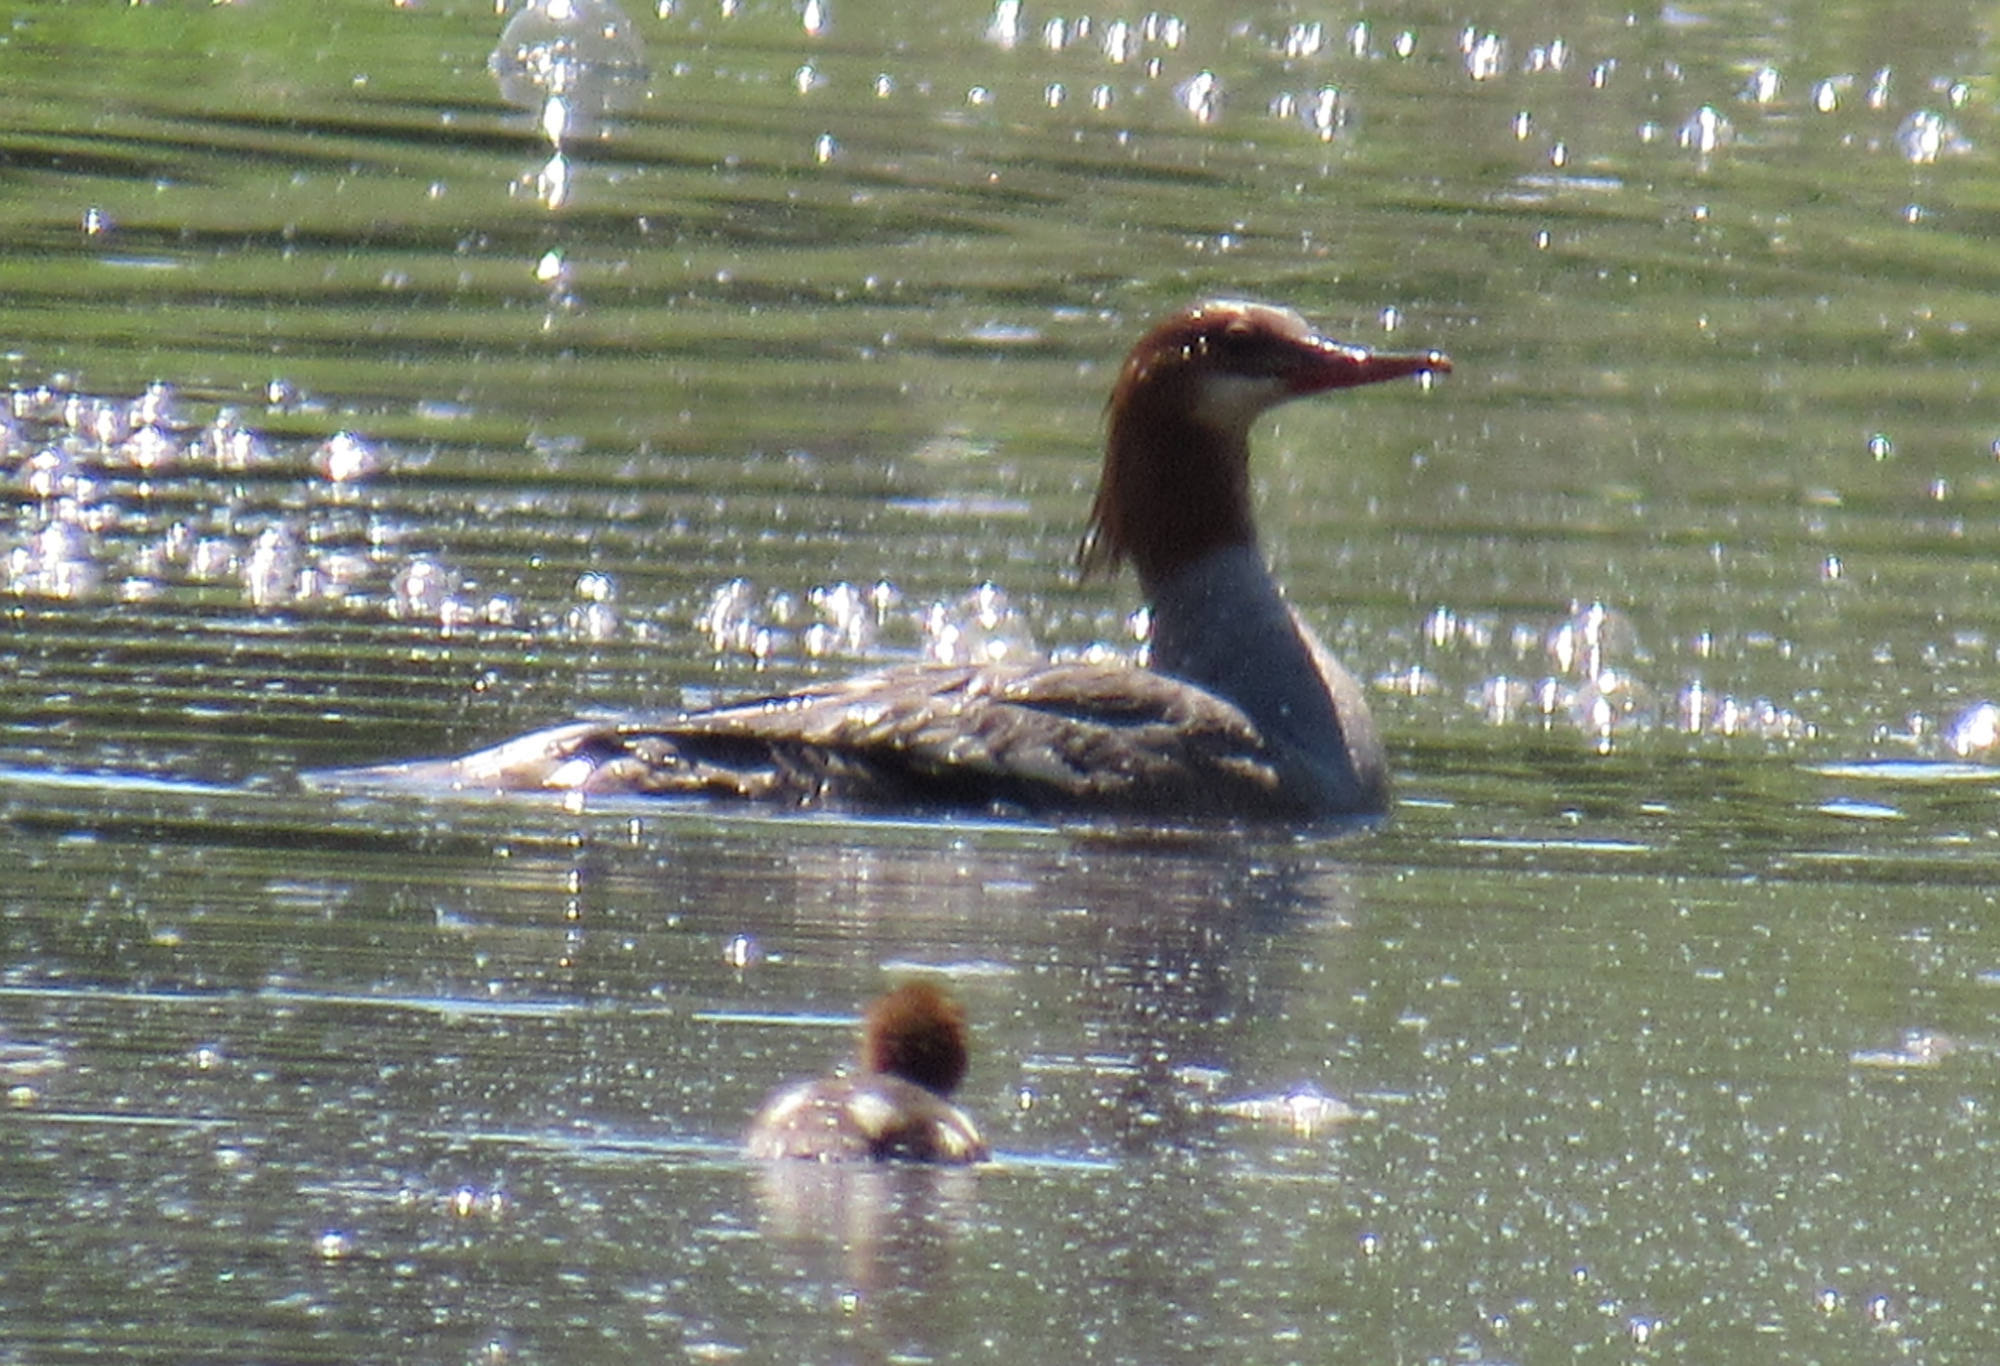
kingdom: Animalia
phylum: Chordata
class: Aves
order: Anseriformes
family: Anatidae
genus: Mergus
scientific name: Mergus merganser
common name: Common merganser
